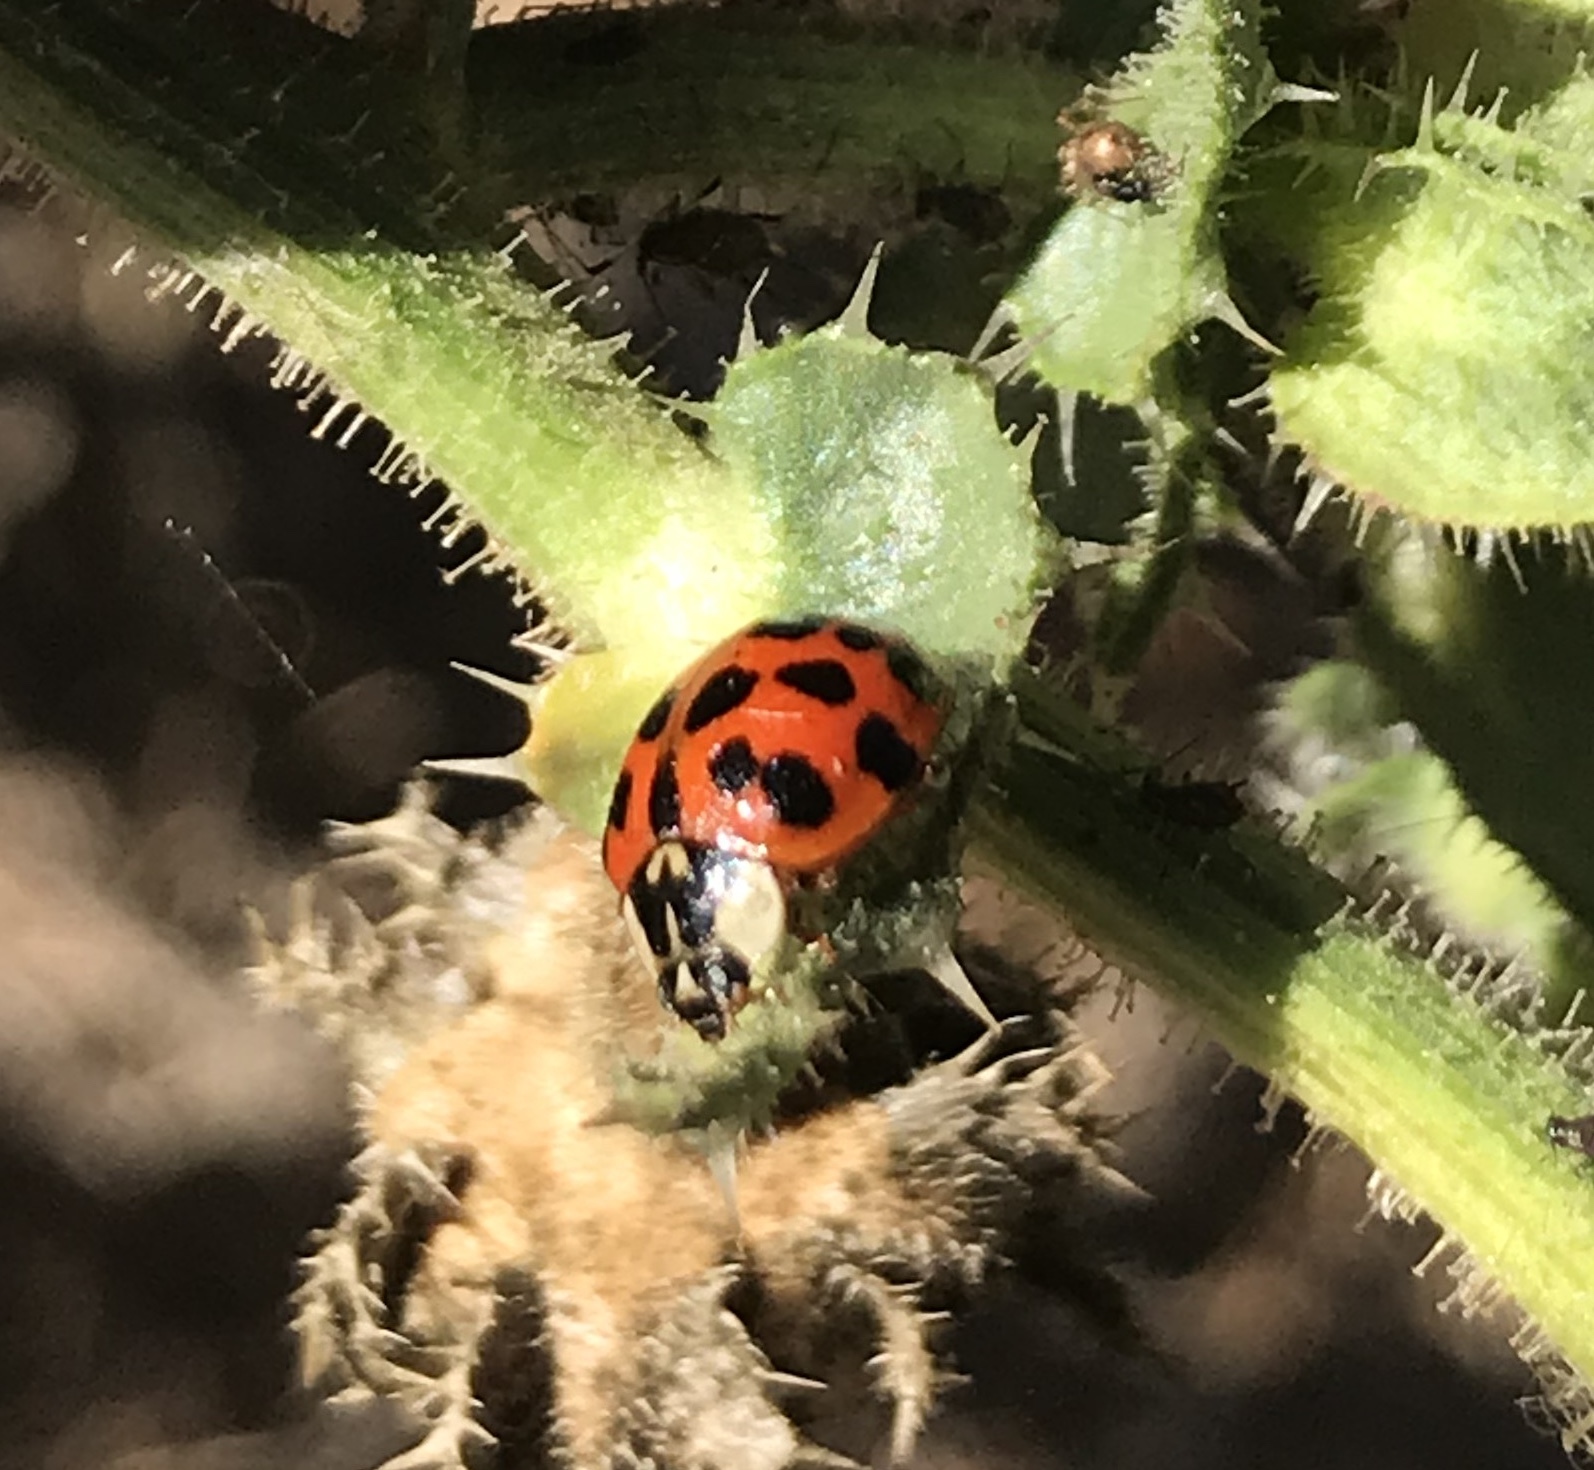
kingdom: Animalia
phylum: Arthropoda
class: Insecta
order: Coleoptera
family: Coccinellidae
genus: Harmonia
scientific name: Harmonia axyridis
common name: Harlequin ladybird
